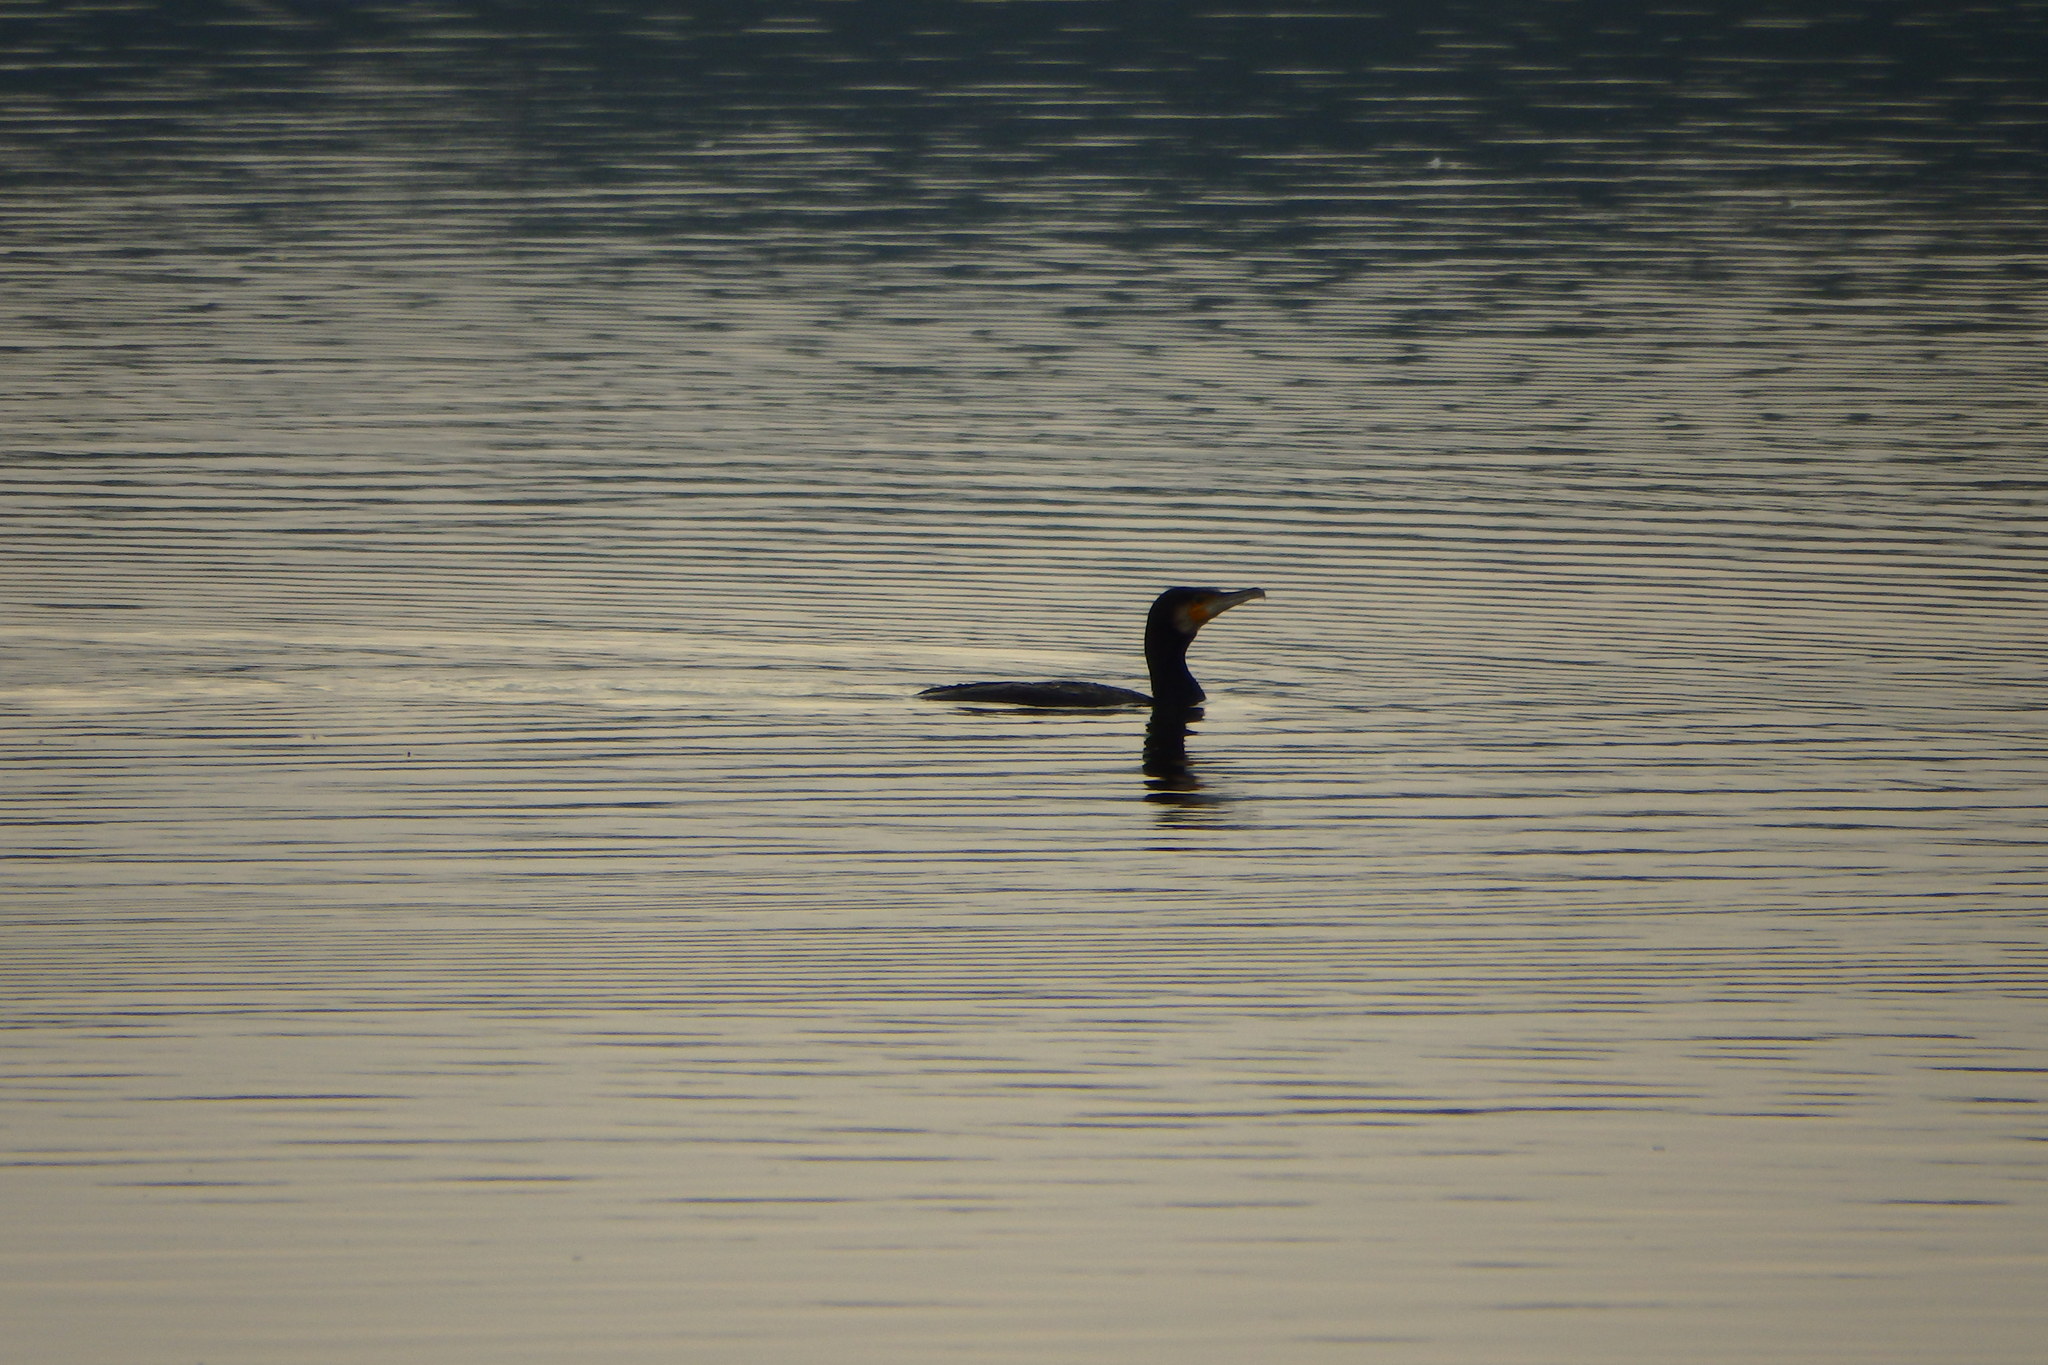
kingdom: Animalia
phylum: Chordata
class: Aves
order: Suliformes
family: Phalacrocoracidae
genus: Phalacrocorax
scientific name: Phalacrocorax carbo
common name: Great cormorant
